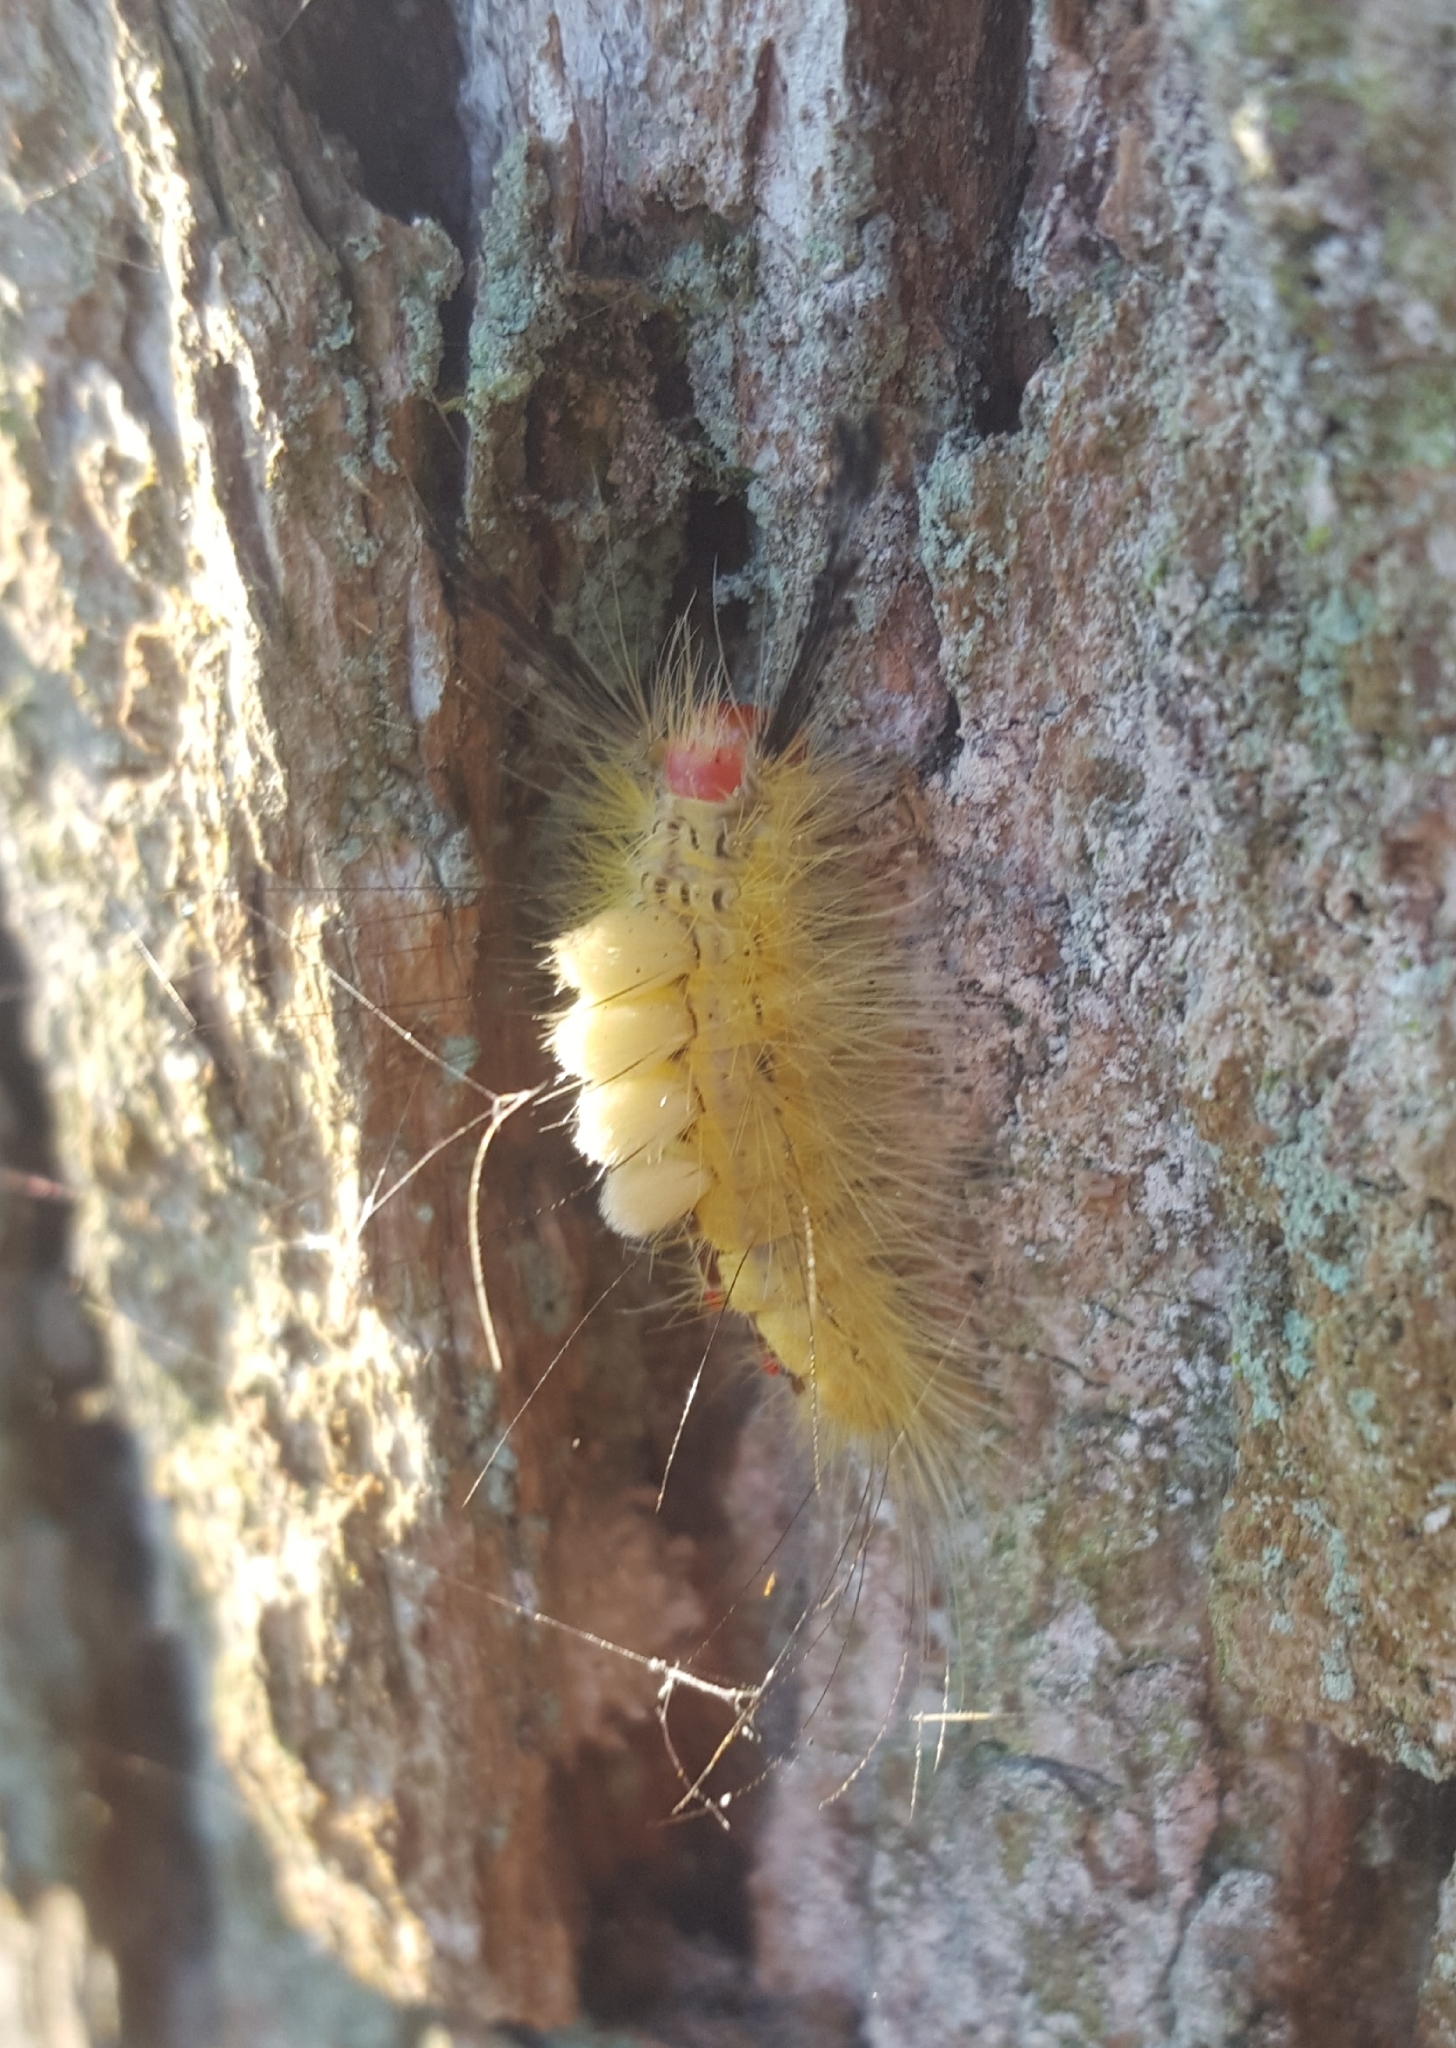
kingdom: Animalia
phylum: Arthropoda
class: Insecta
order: Lepidoptera
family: Erebidae
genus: Orgyia
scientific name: Orgyia leucostigma
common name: White-marked tussock moth
